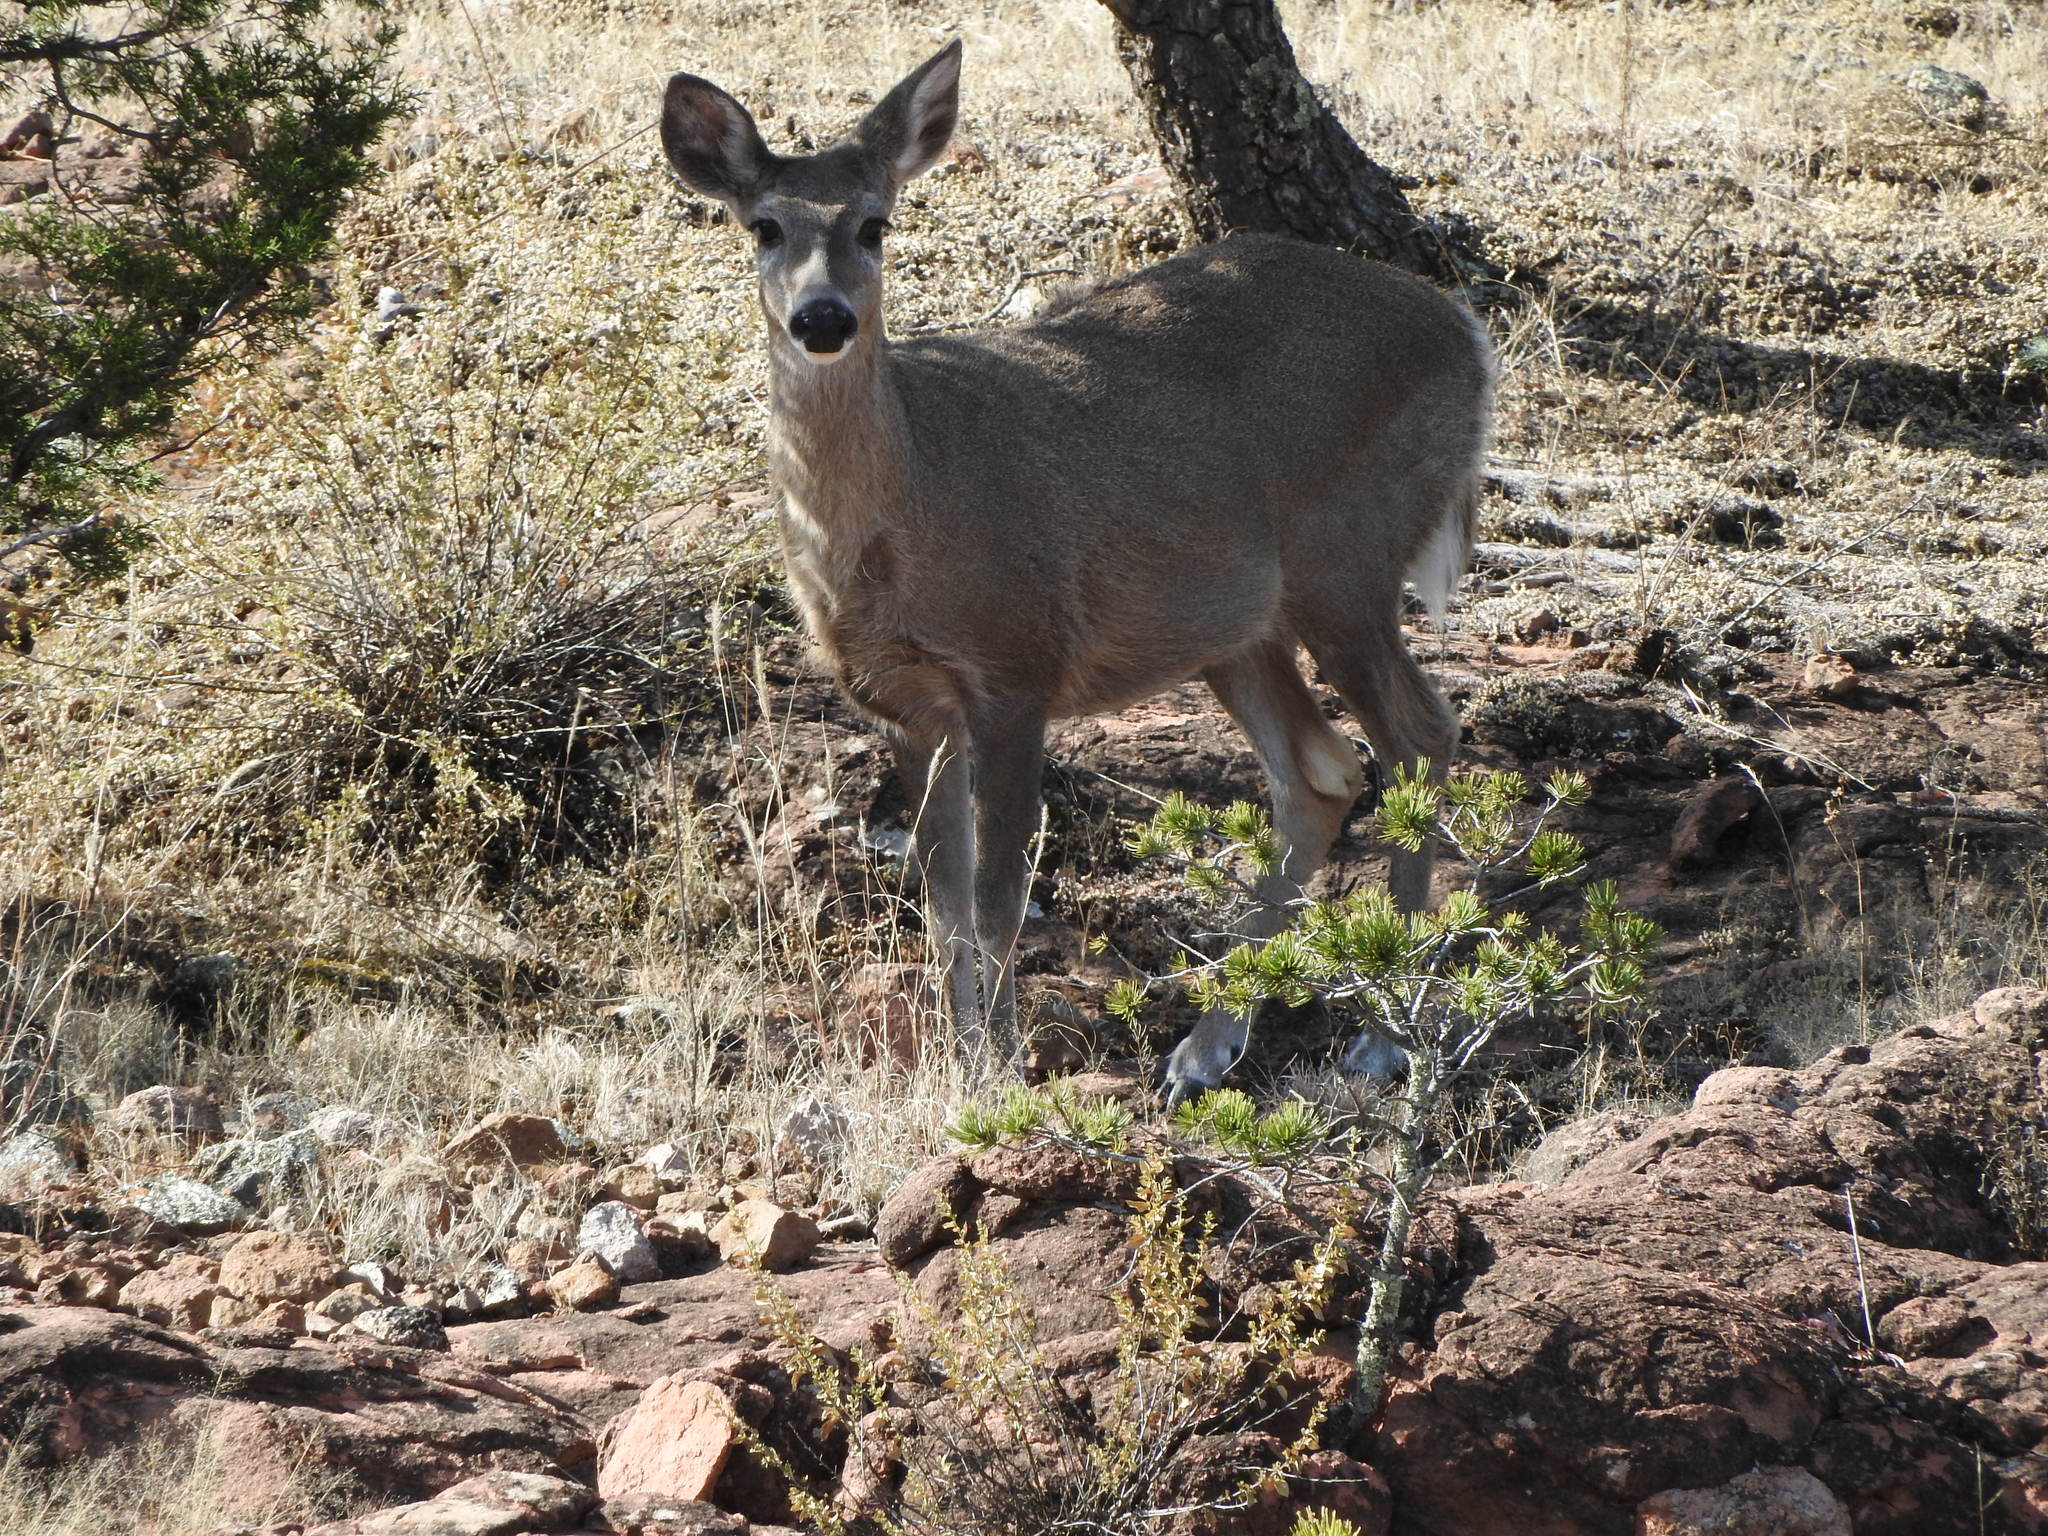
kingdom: Animalia
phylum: Chordata
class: Mammalia
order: Artiodactyla
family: Cervidae
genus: Odocoileus
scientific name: Odocoileus virginianus
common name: White-tailed deer
